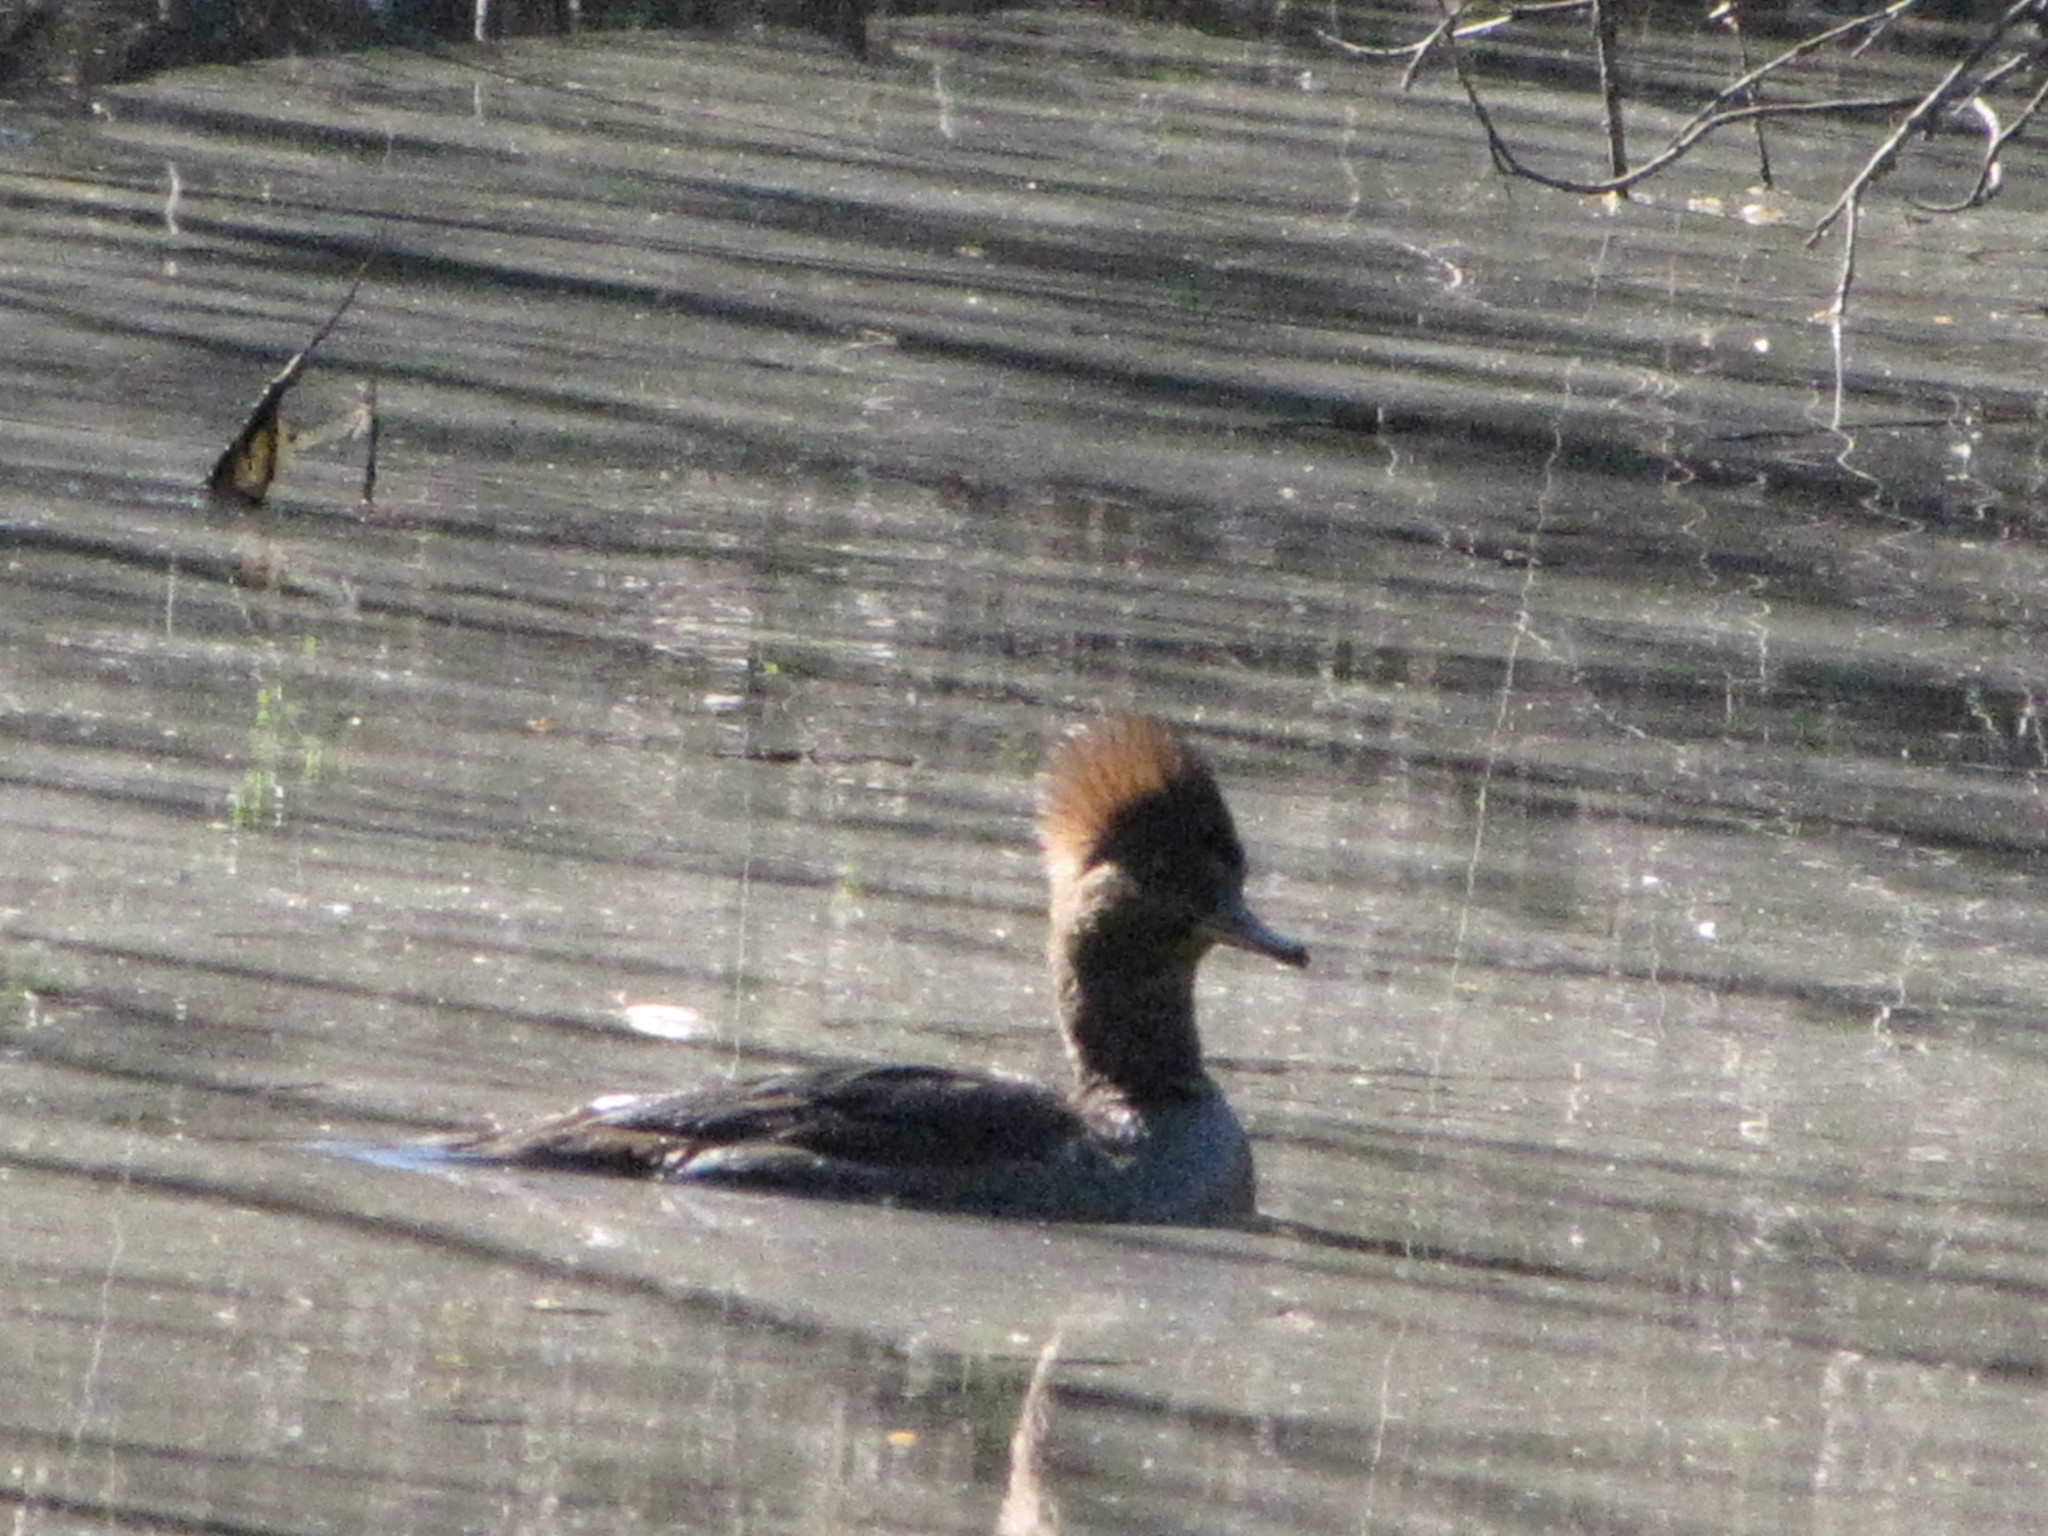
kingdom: Animalia
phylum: Chordata
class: Aves
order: Anseriformes
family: Anatidae
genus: Lophodytes
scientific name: Lophodytes cucullatus
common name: Hooded merganser
